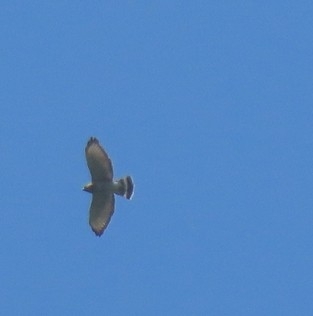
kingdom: Animalia
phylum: Chordata
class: Aves
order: Accipitriformes
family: Accipitridae
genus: Buteo
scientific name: Buteo platypterus
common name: Broad-winged hawk
